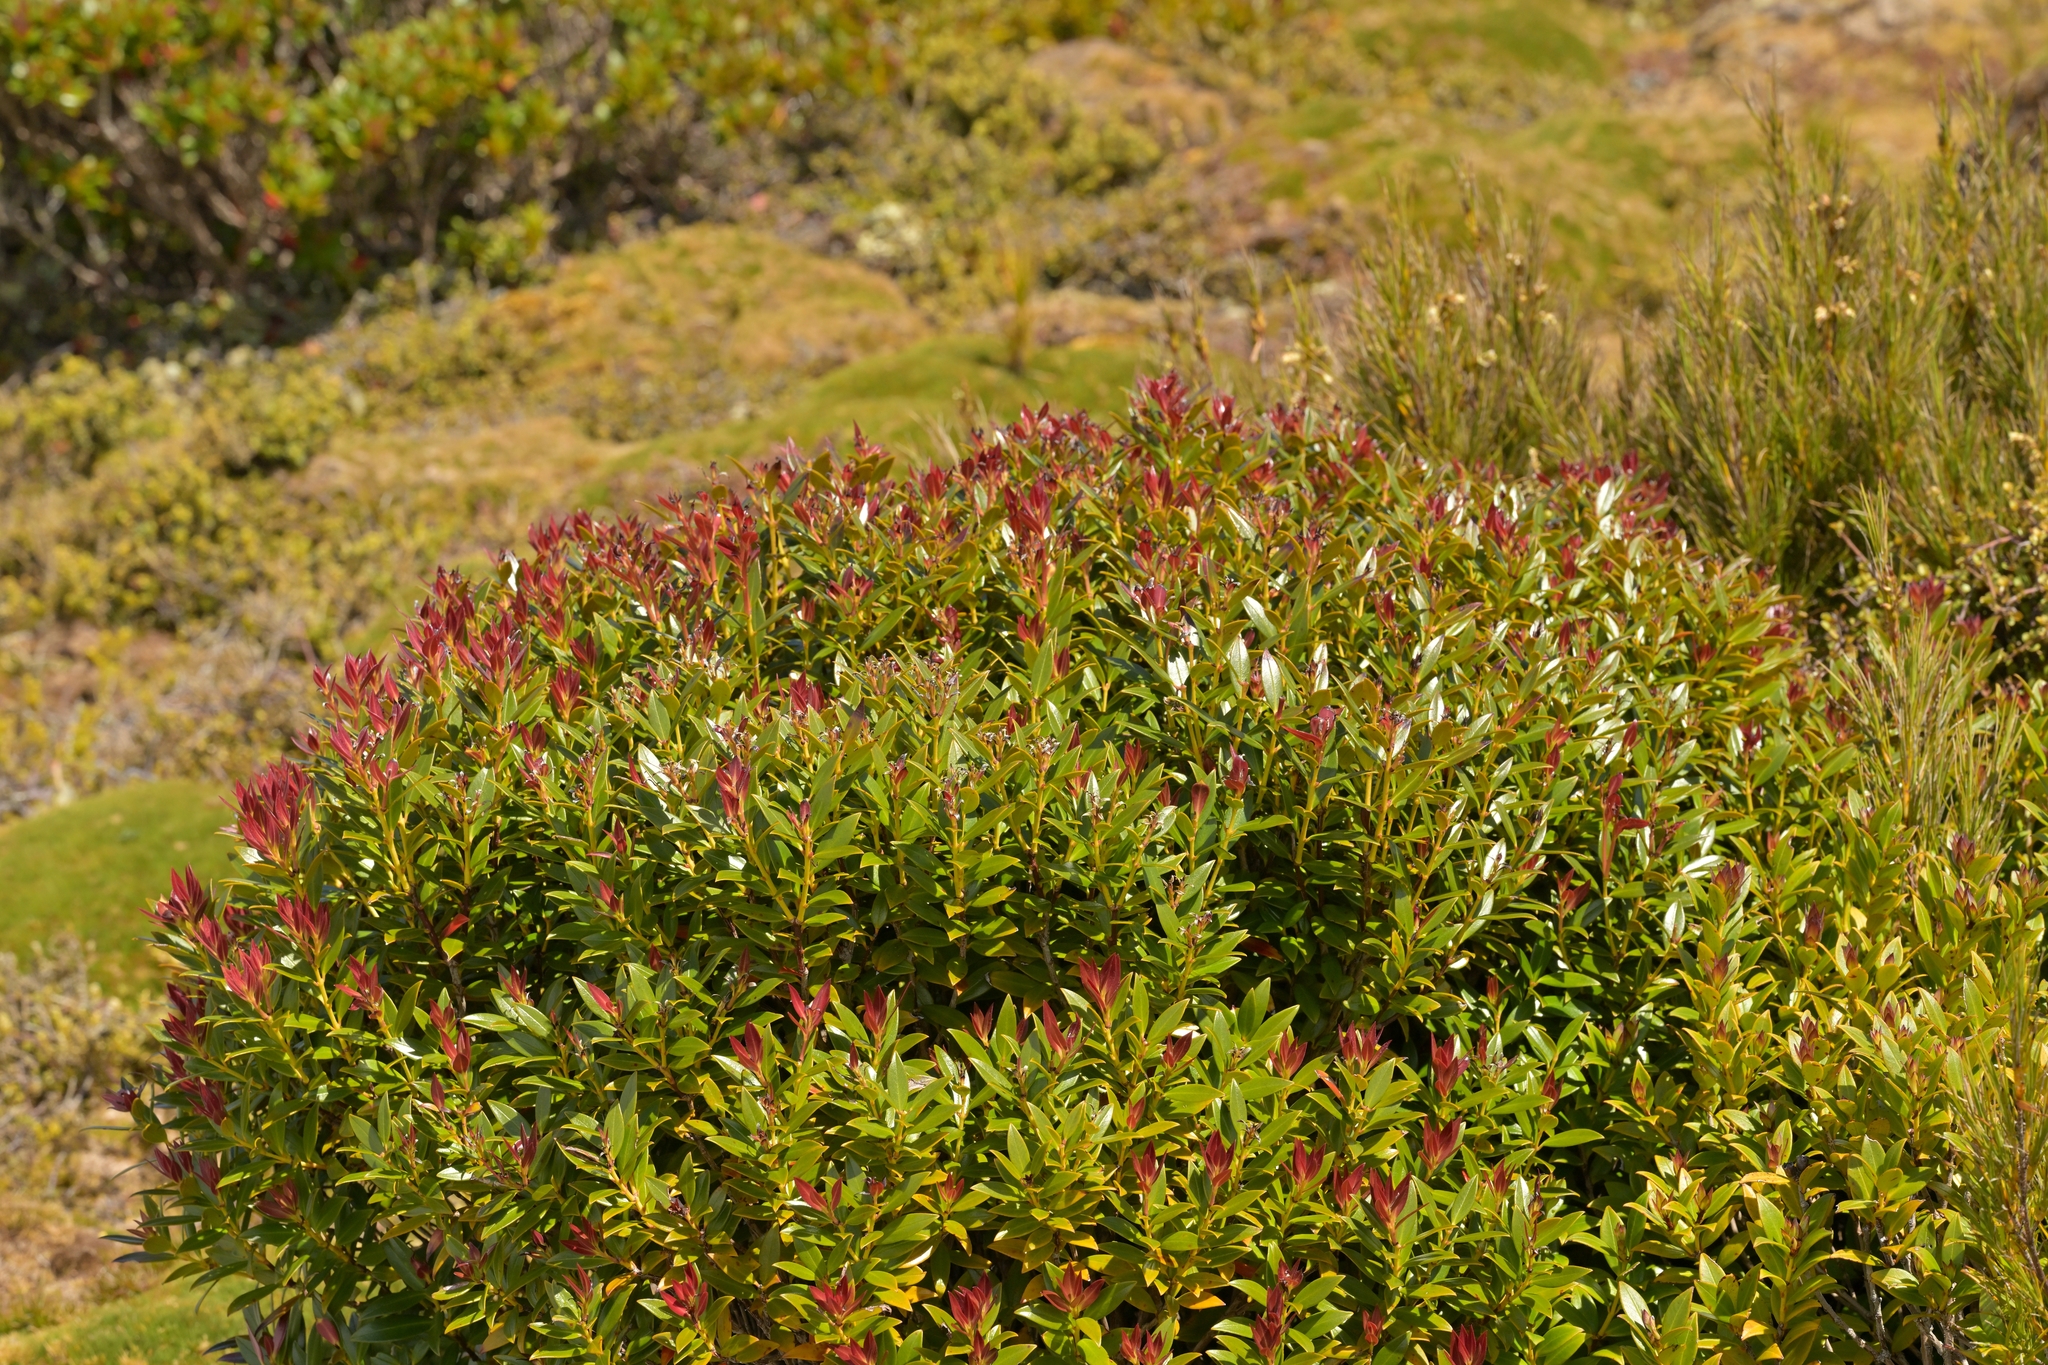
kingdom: Plantae
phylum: Tracheophyta
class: Magnoliopsida
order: Myrtales
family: Myrtaceae
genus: Metrosideros
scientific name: Metrosideros umbellata
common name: Southern rata
